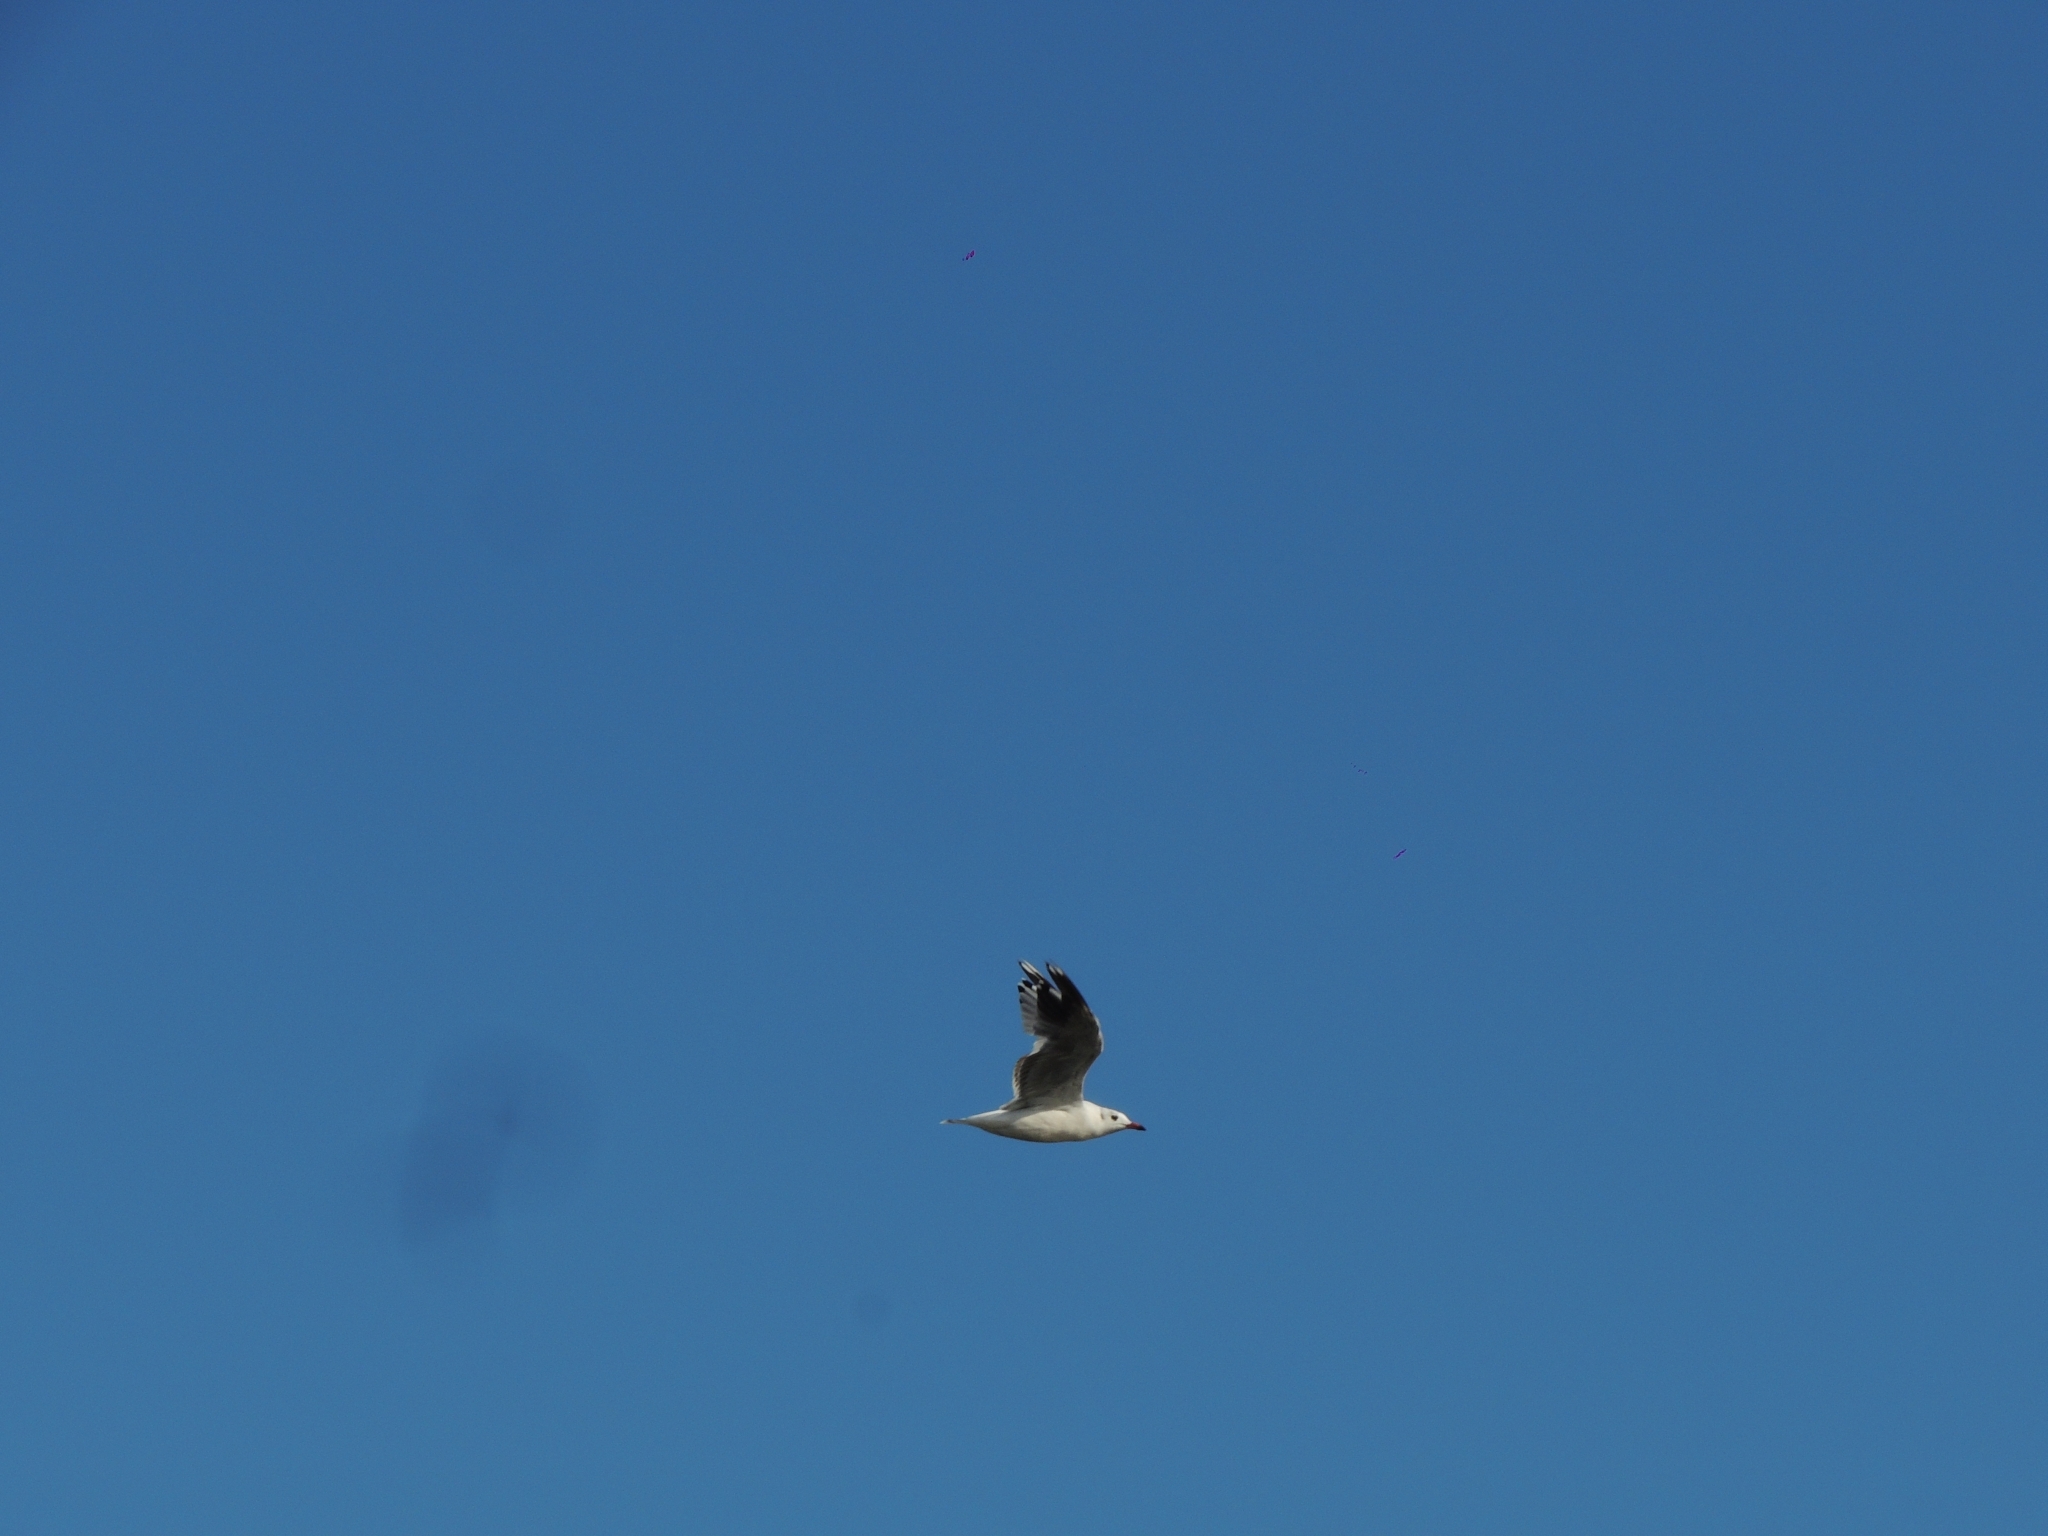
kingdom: Animalia
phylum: Chordata
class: Aves
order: Charadriiformes
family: Laridae
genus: Chroicocephalus
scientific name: Chroicocephalus maculipennis
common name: Brown-hooded gull
